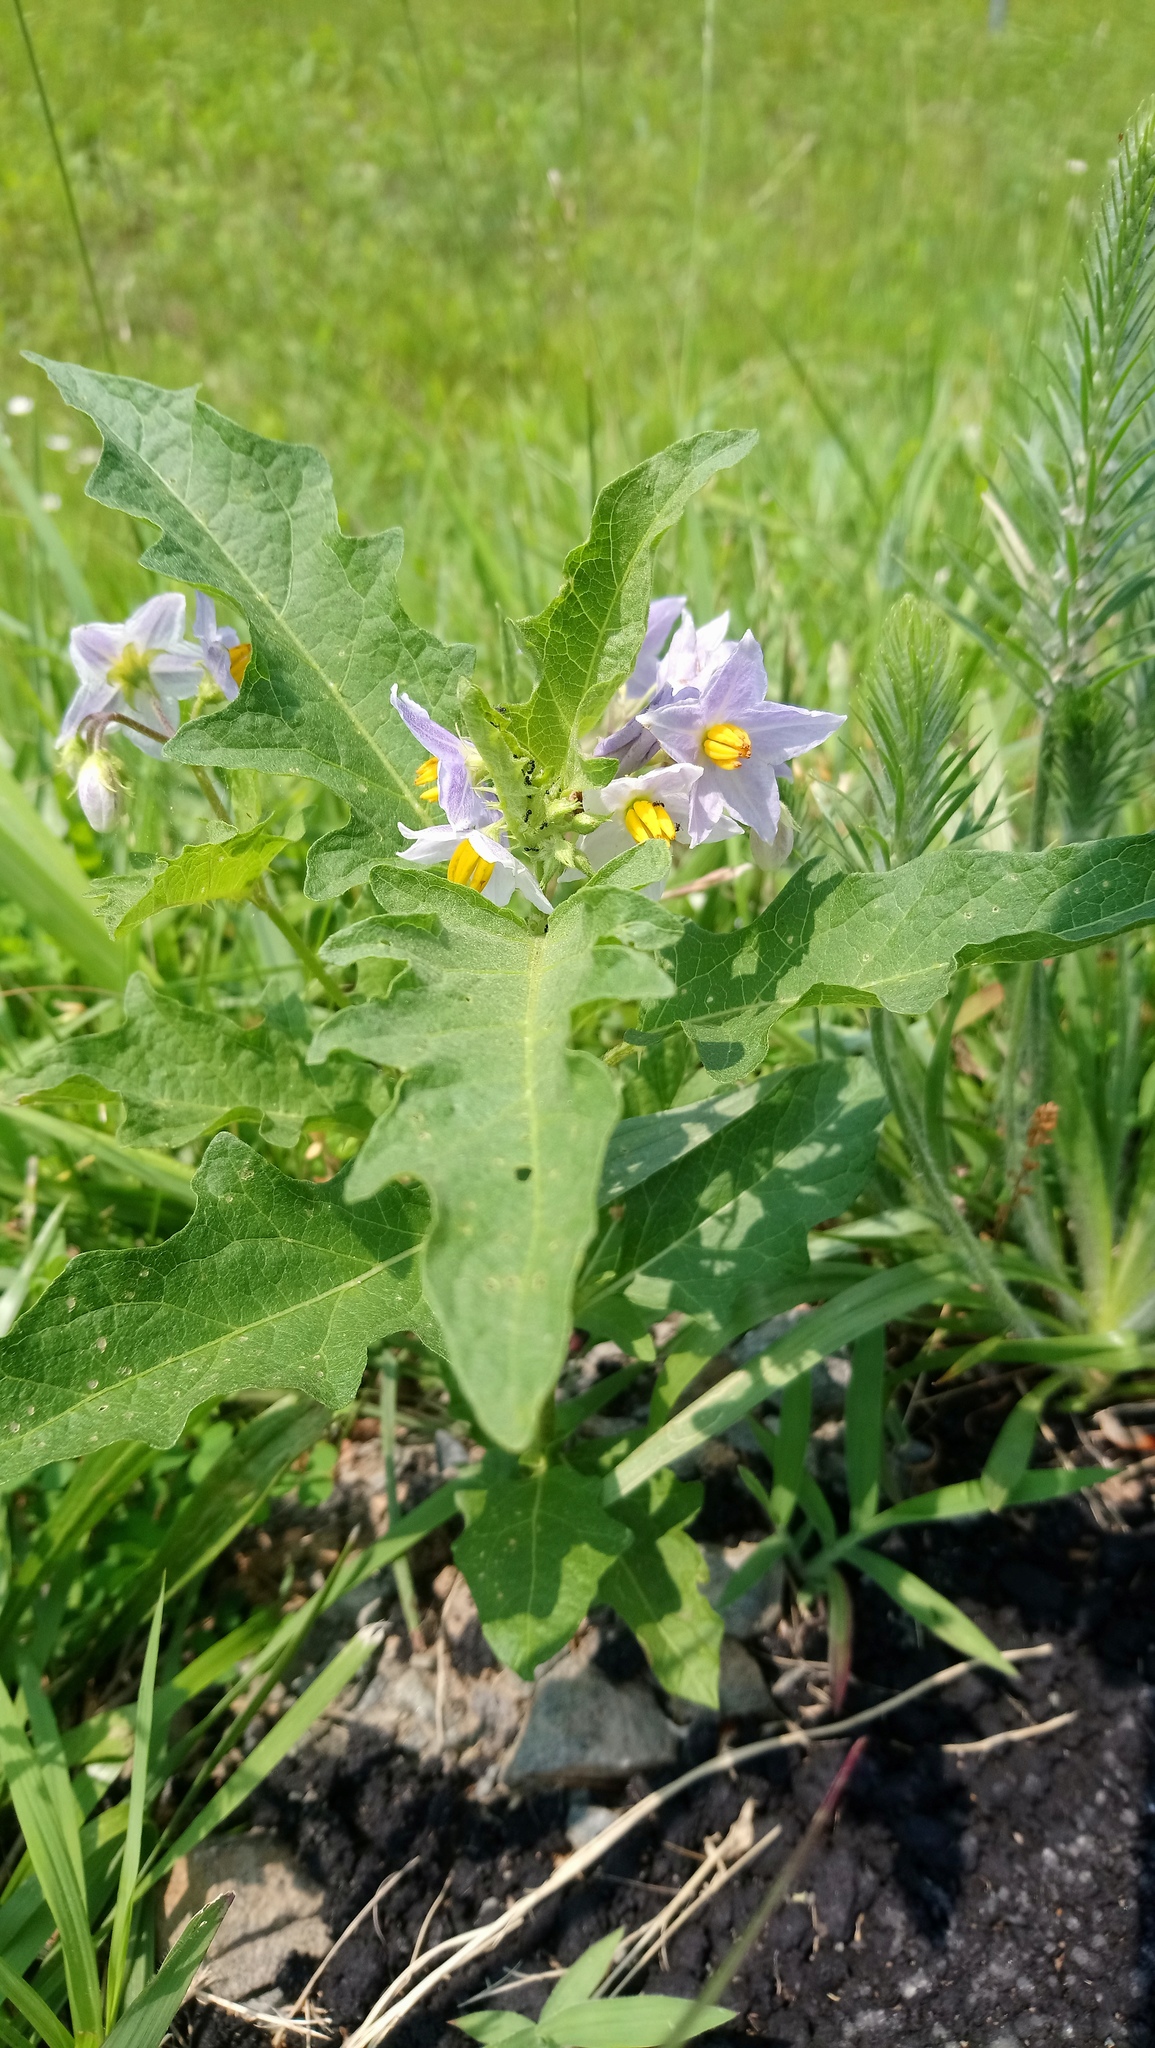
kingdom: Plantae
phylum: Tracheophyta
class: Magnoliopsida
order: Solanales
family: Solanaceae
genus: Solanum
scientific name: Solanum carolinense
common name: Horse-nettle
